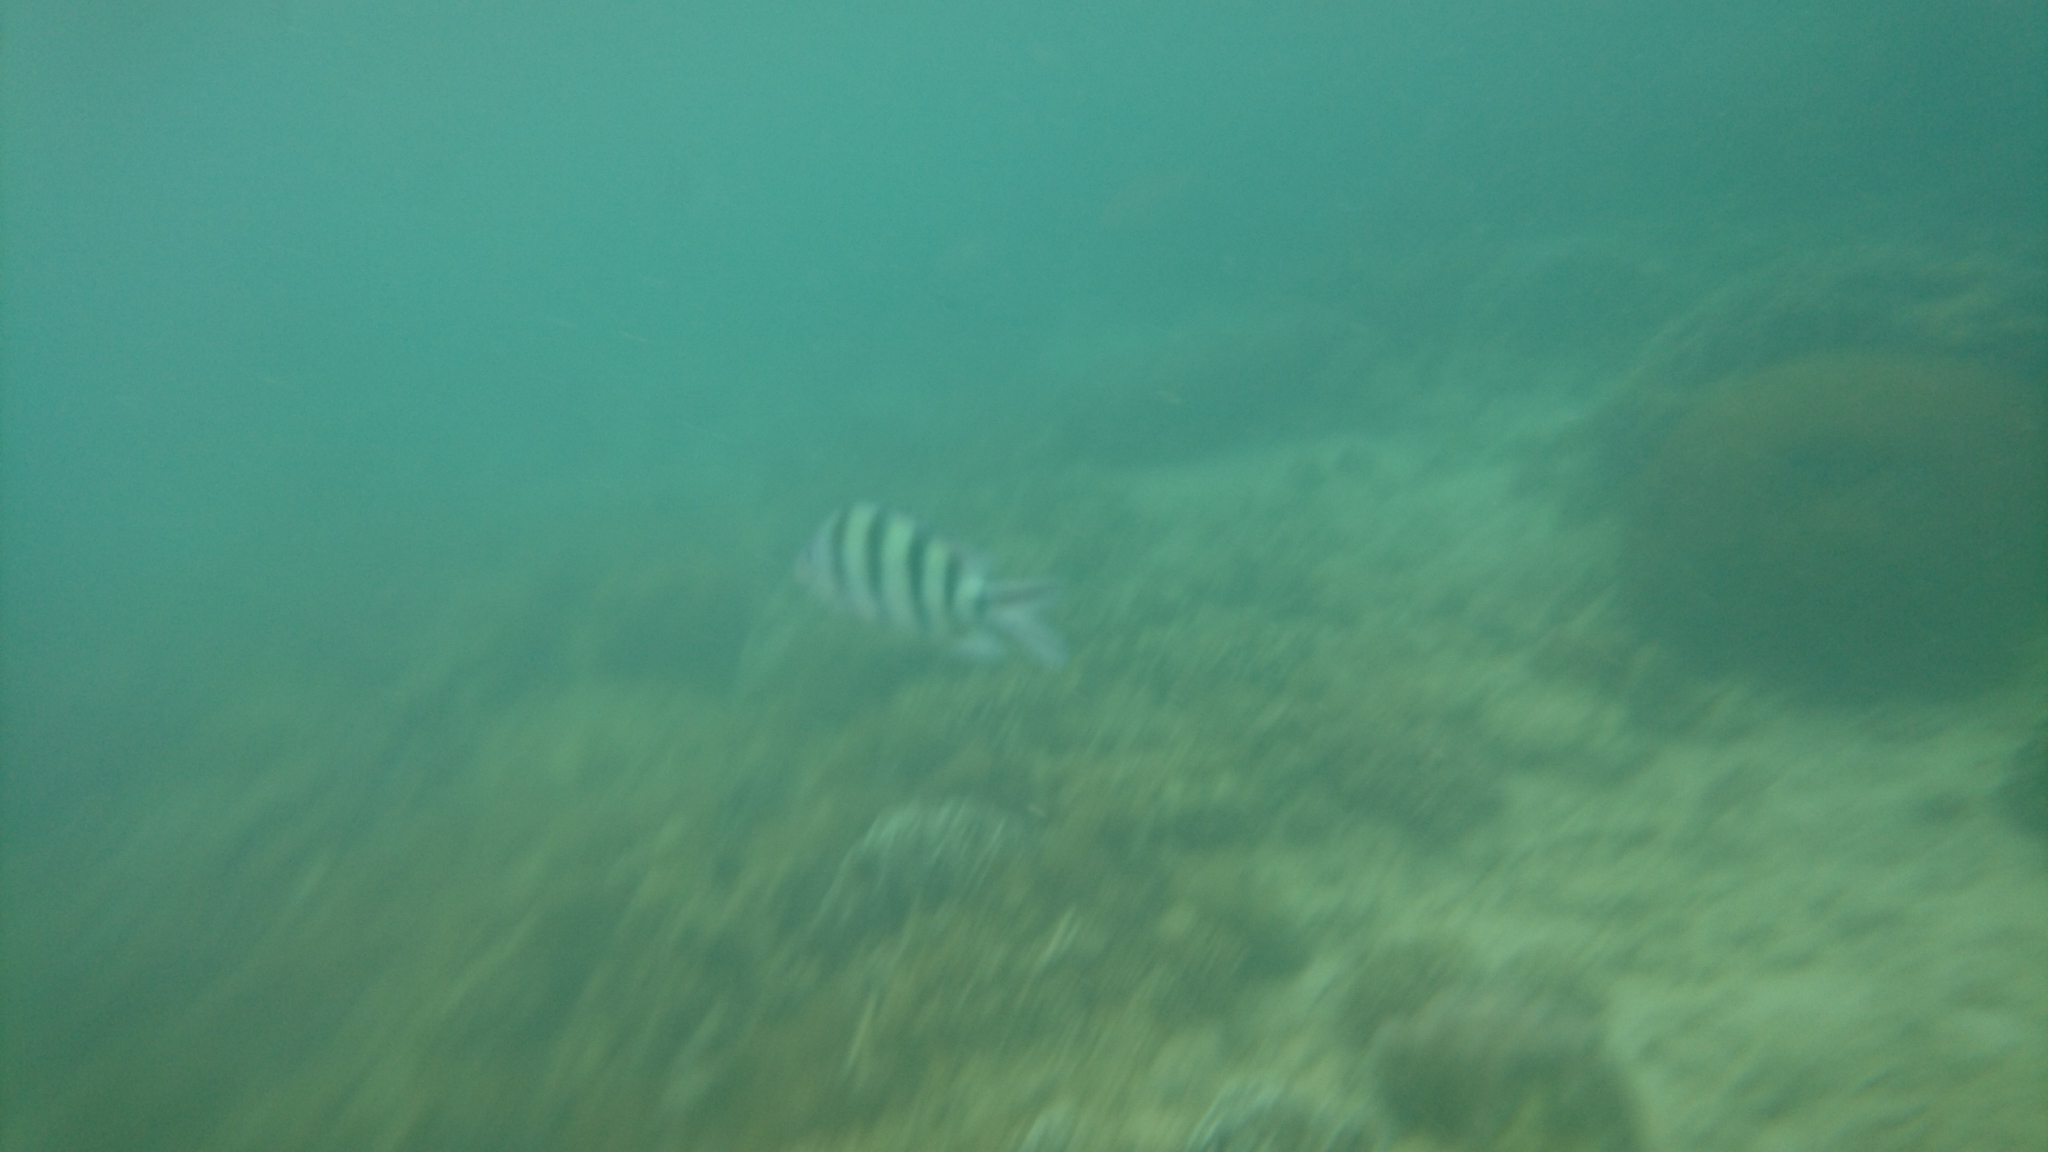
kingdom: Animalia
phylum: Chordata
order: Perciformes
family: Pomacentridae
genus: Abudefduf
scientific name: Abudefduf sexfasciatus
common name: Scissortail sergeant
